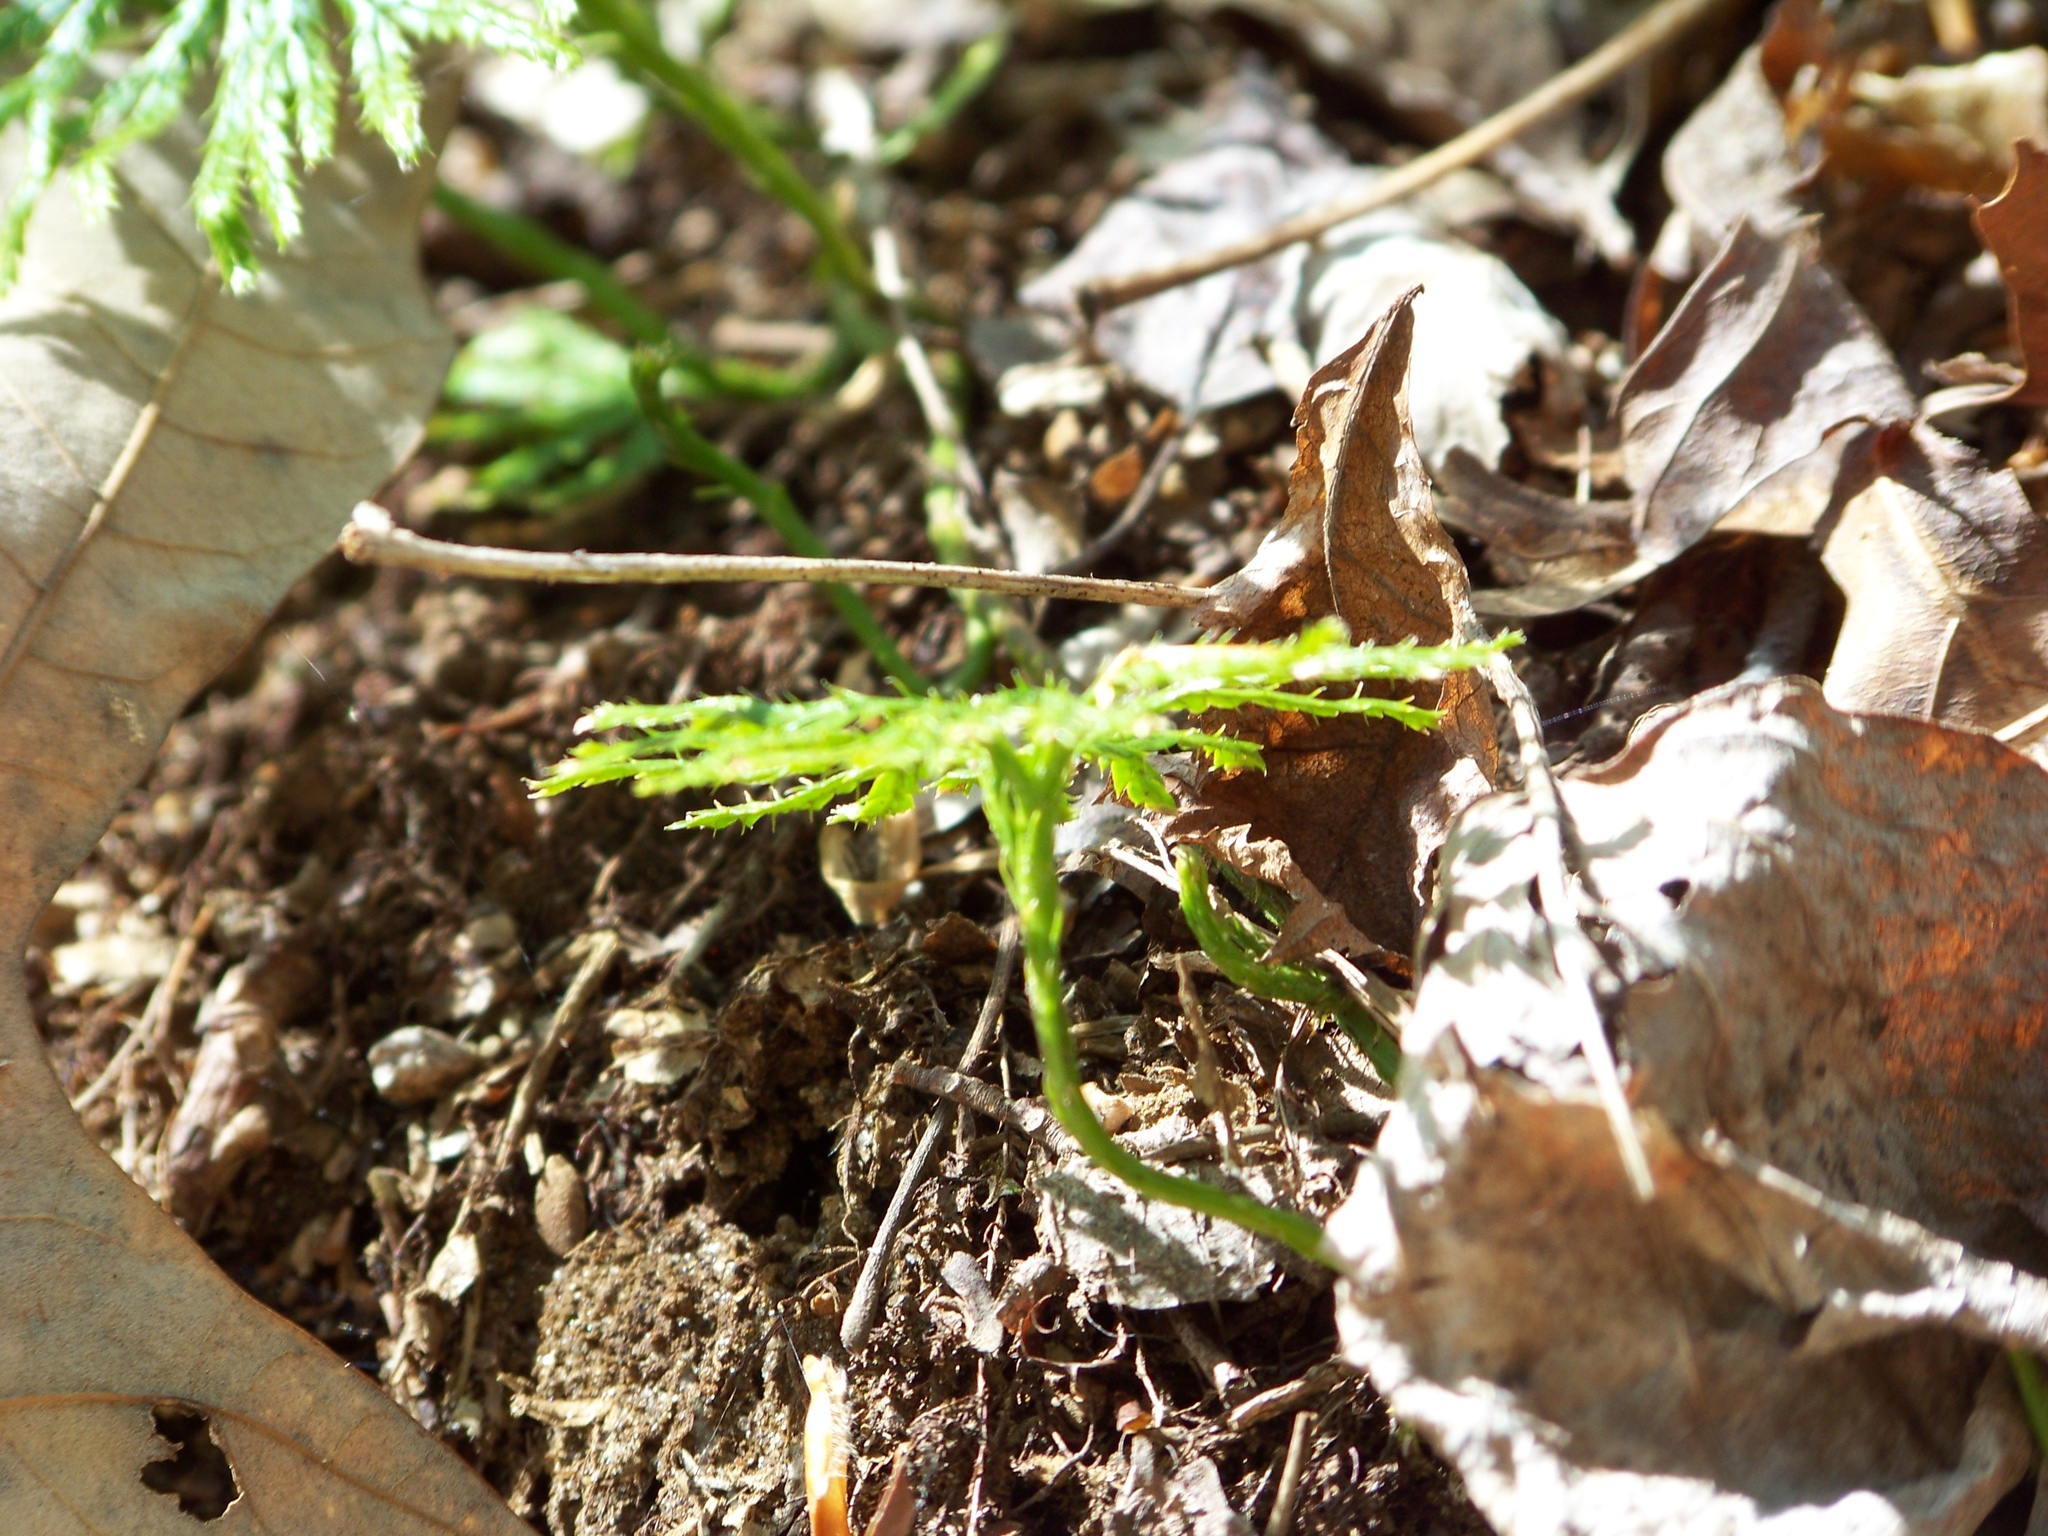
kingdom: Plantae
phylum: Tracheophyta
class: Lycopodiopsida
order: Lycopodiales
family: Lycopodiaceae
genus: Diphasiastrum
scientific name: Diphasiastrum digitatum
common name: Southern running-pine
